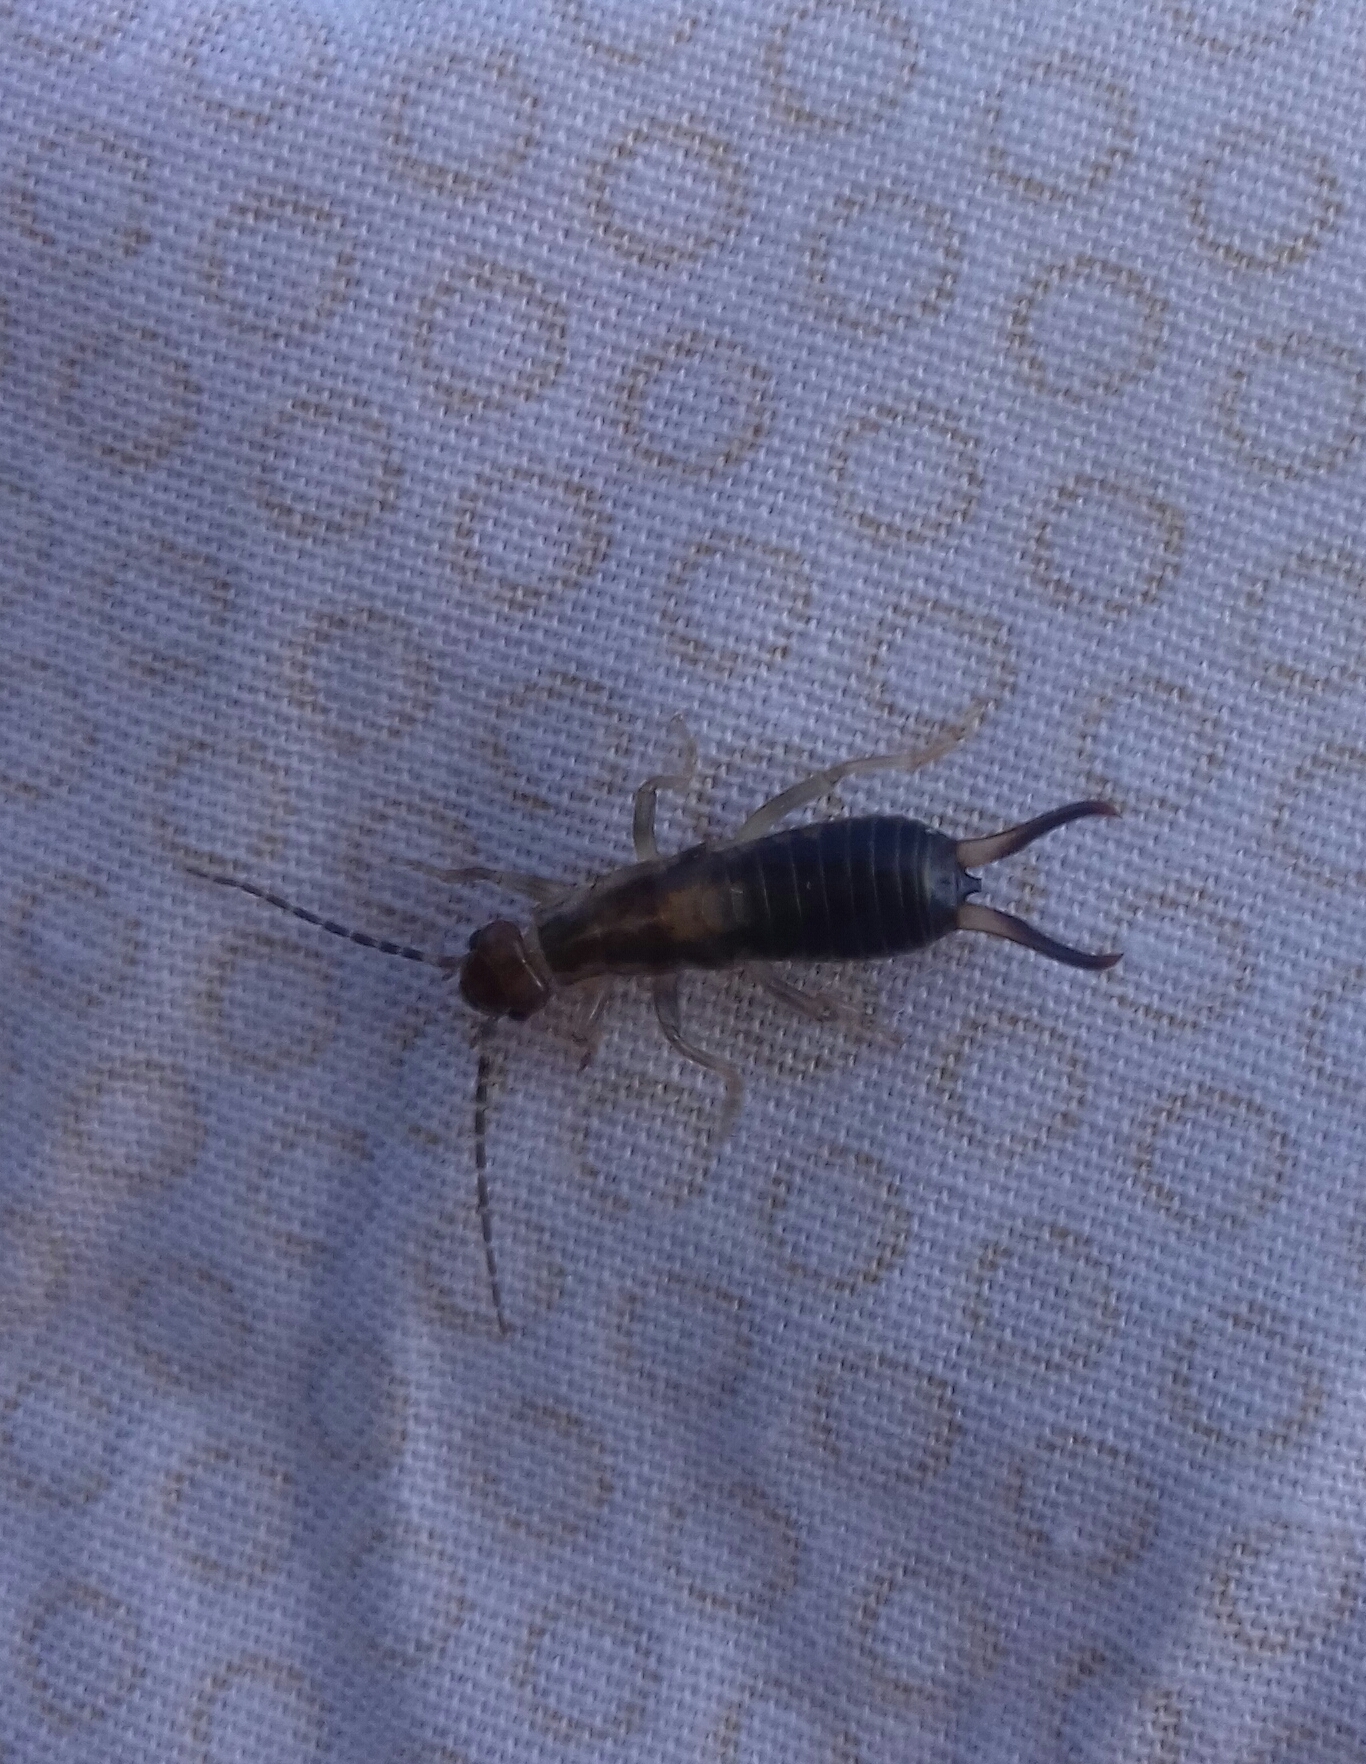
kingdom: Animalia
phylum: Arthropoda
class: Insecta
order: Dermaptera
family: Forficulidae
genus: Forficula
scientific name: Forficula
